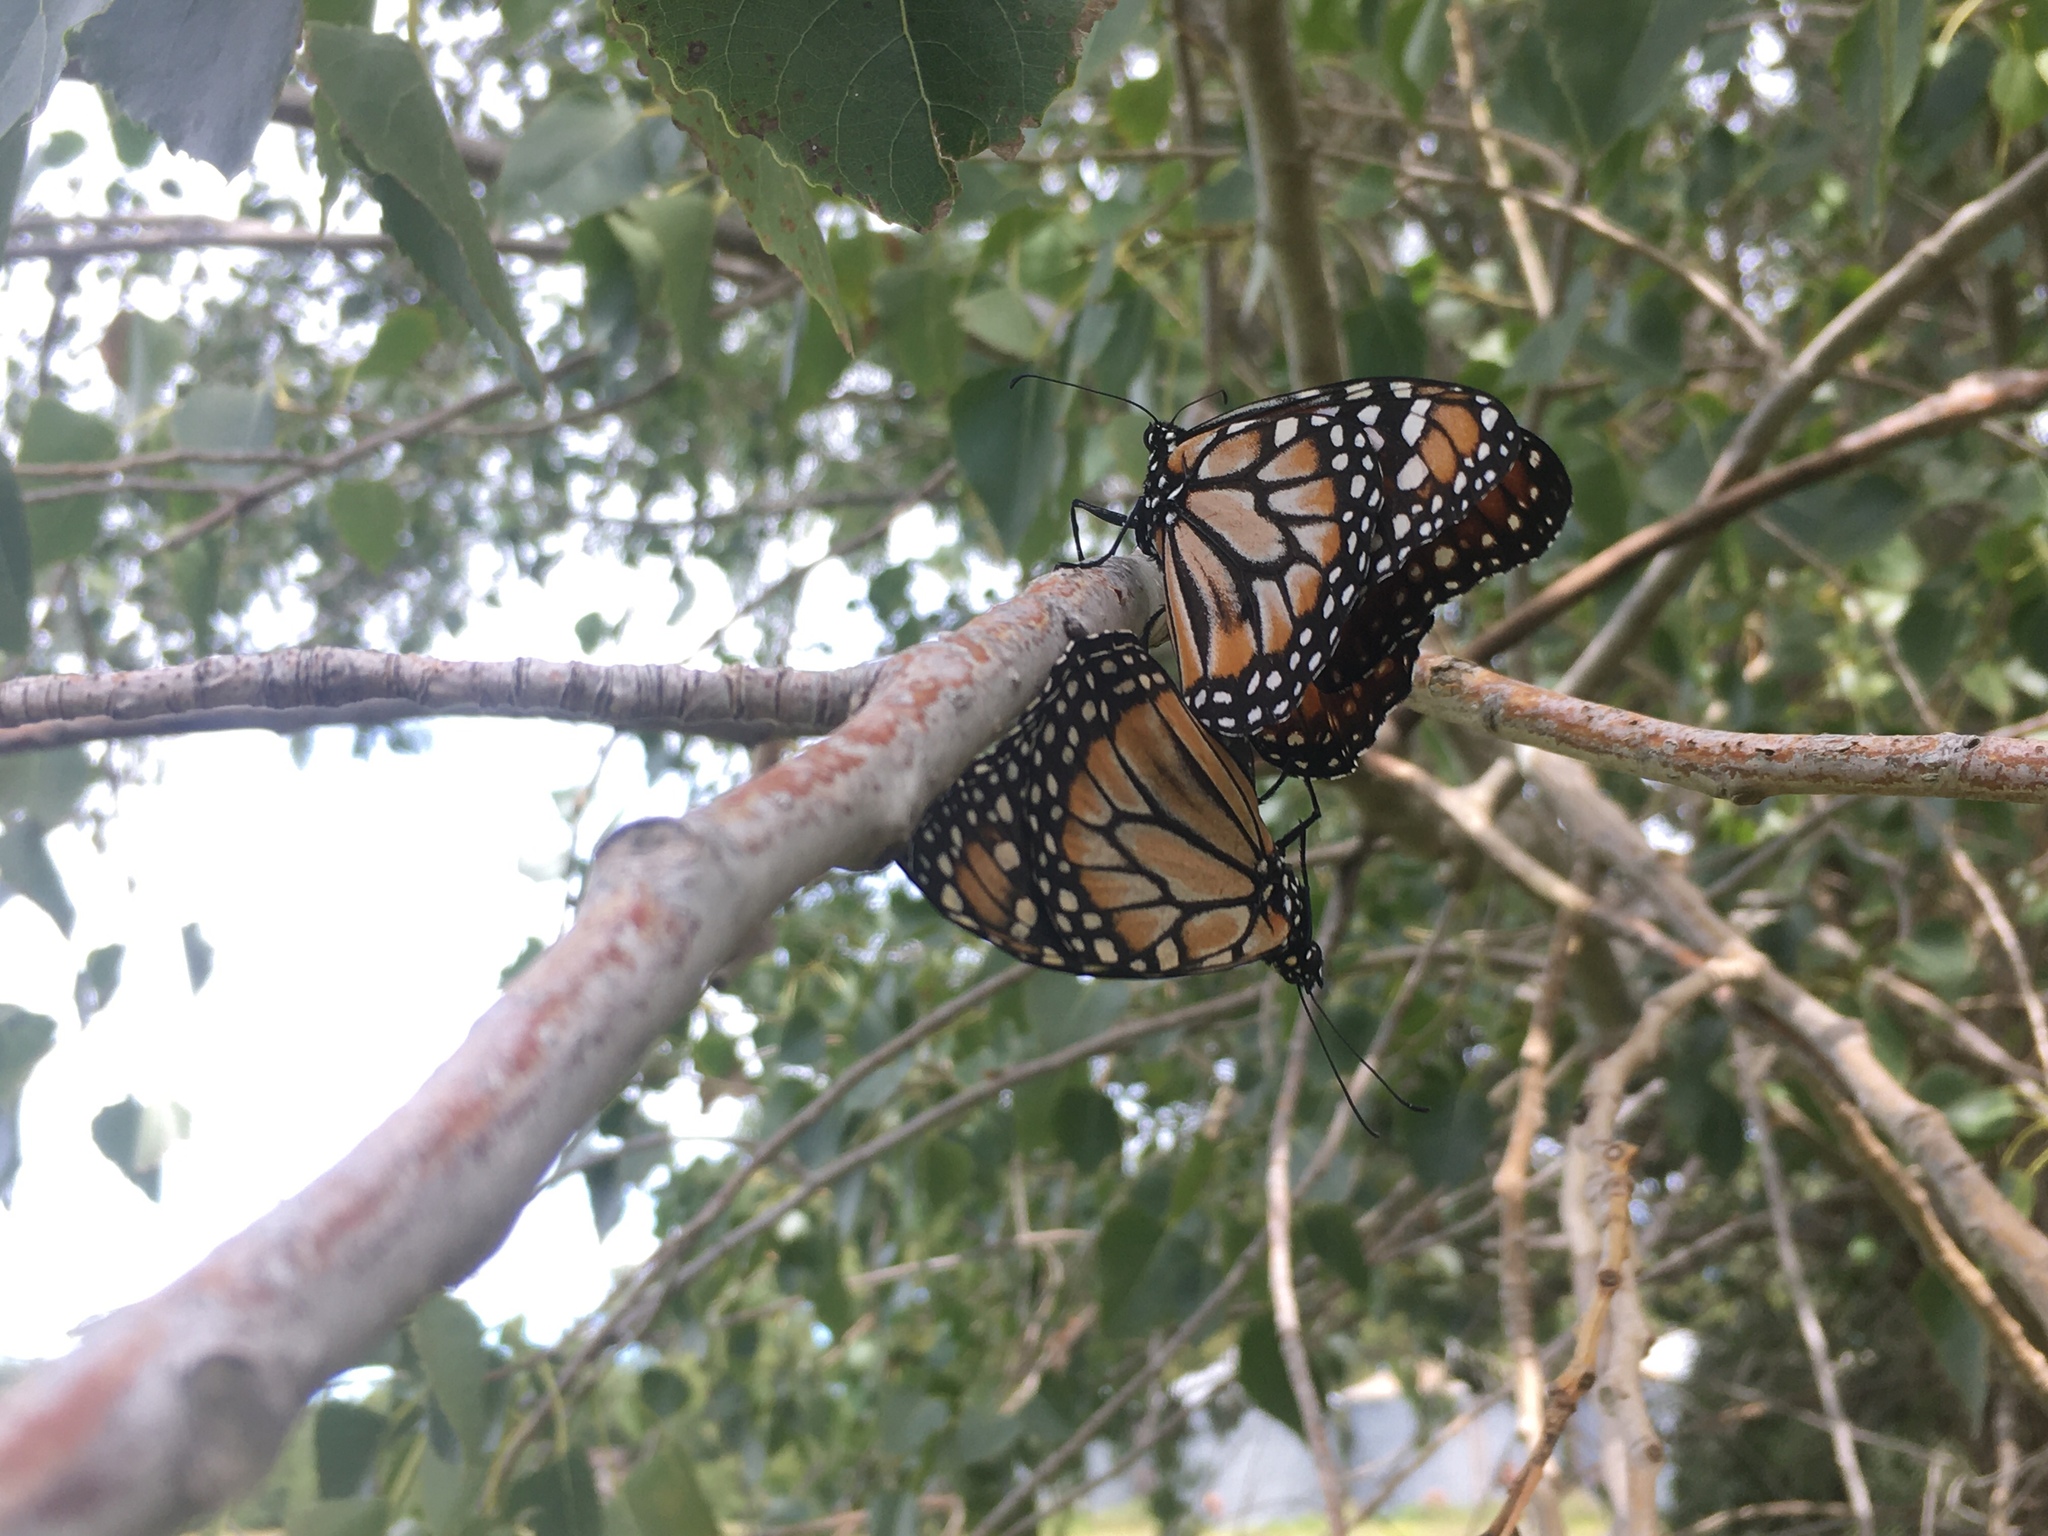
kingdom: Animalia
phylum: Arthropoda
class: Insecta
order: Lepidoptera
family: Nymphalidae
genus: Danaus
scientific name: Danaus erippus
